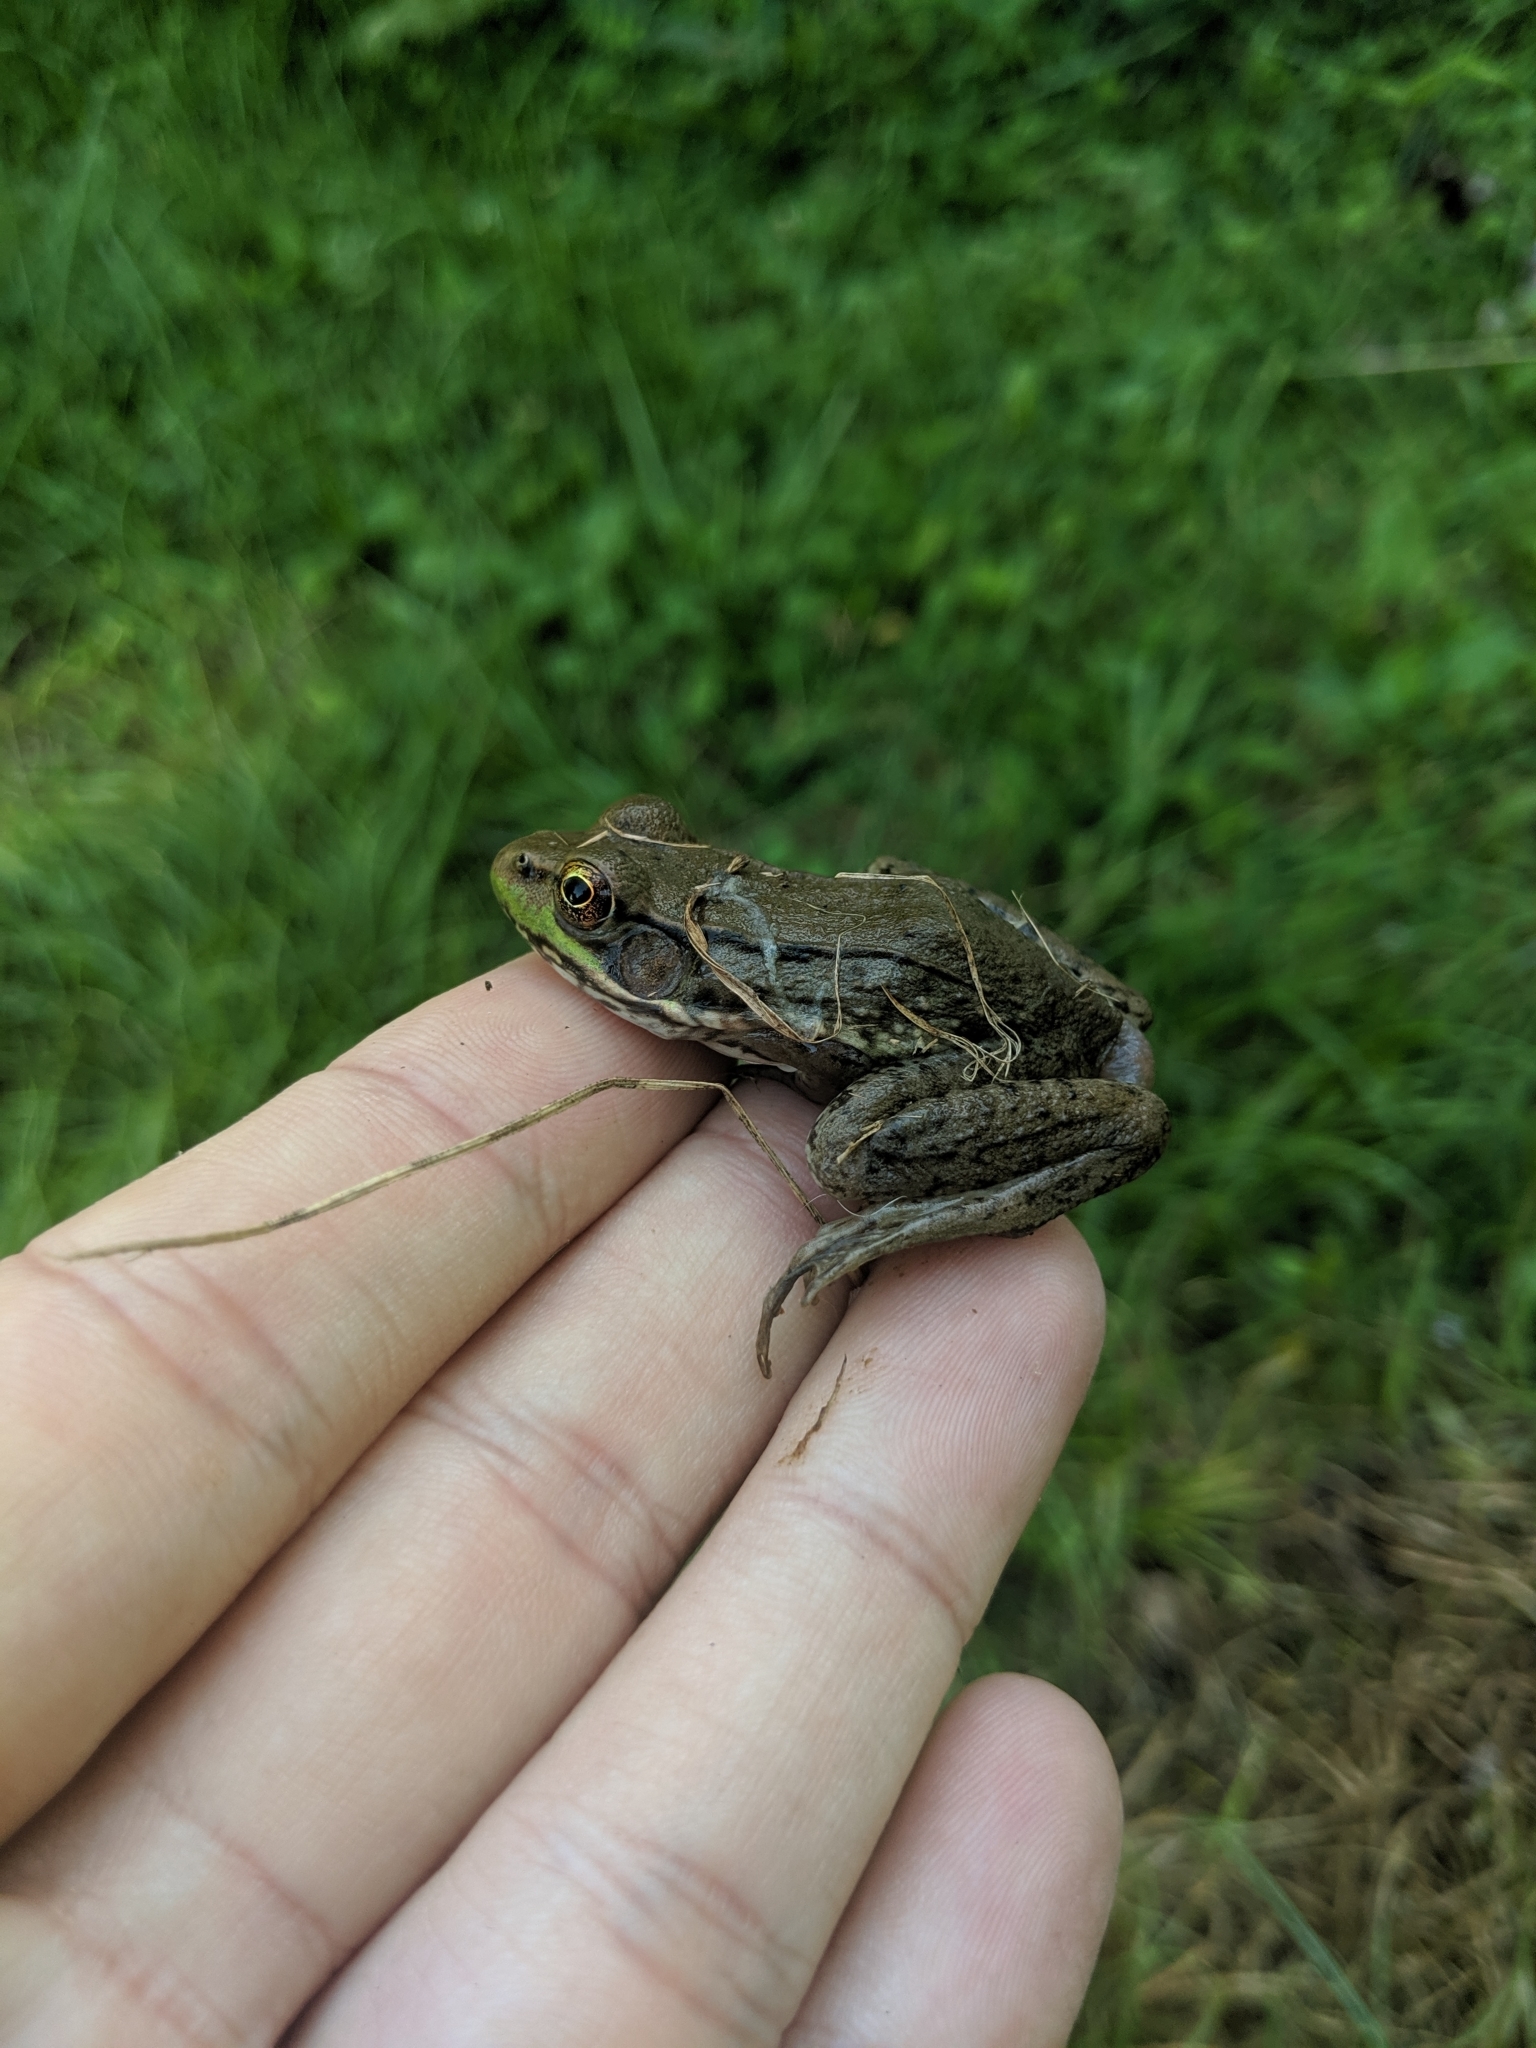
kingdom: Animalia
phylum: Chordata
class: Amphibia
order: Anura
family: Ranidae
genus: Lithobates
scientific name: Lithobates clamitans
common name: Green frog
